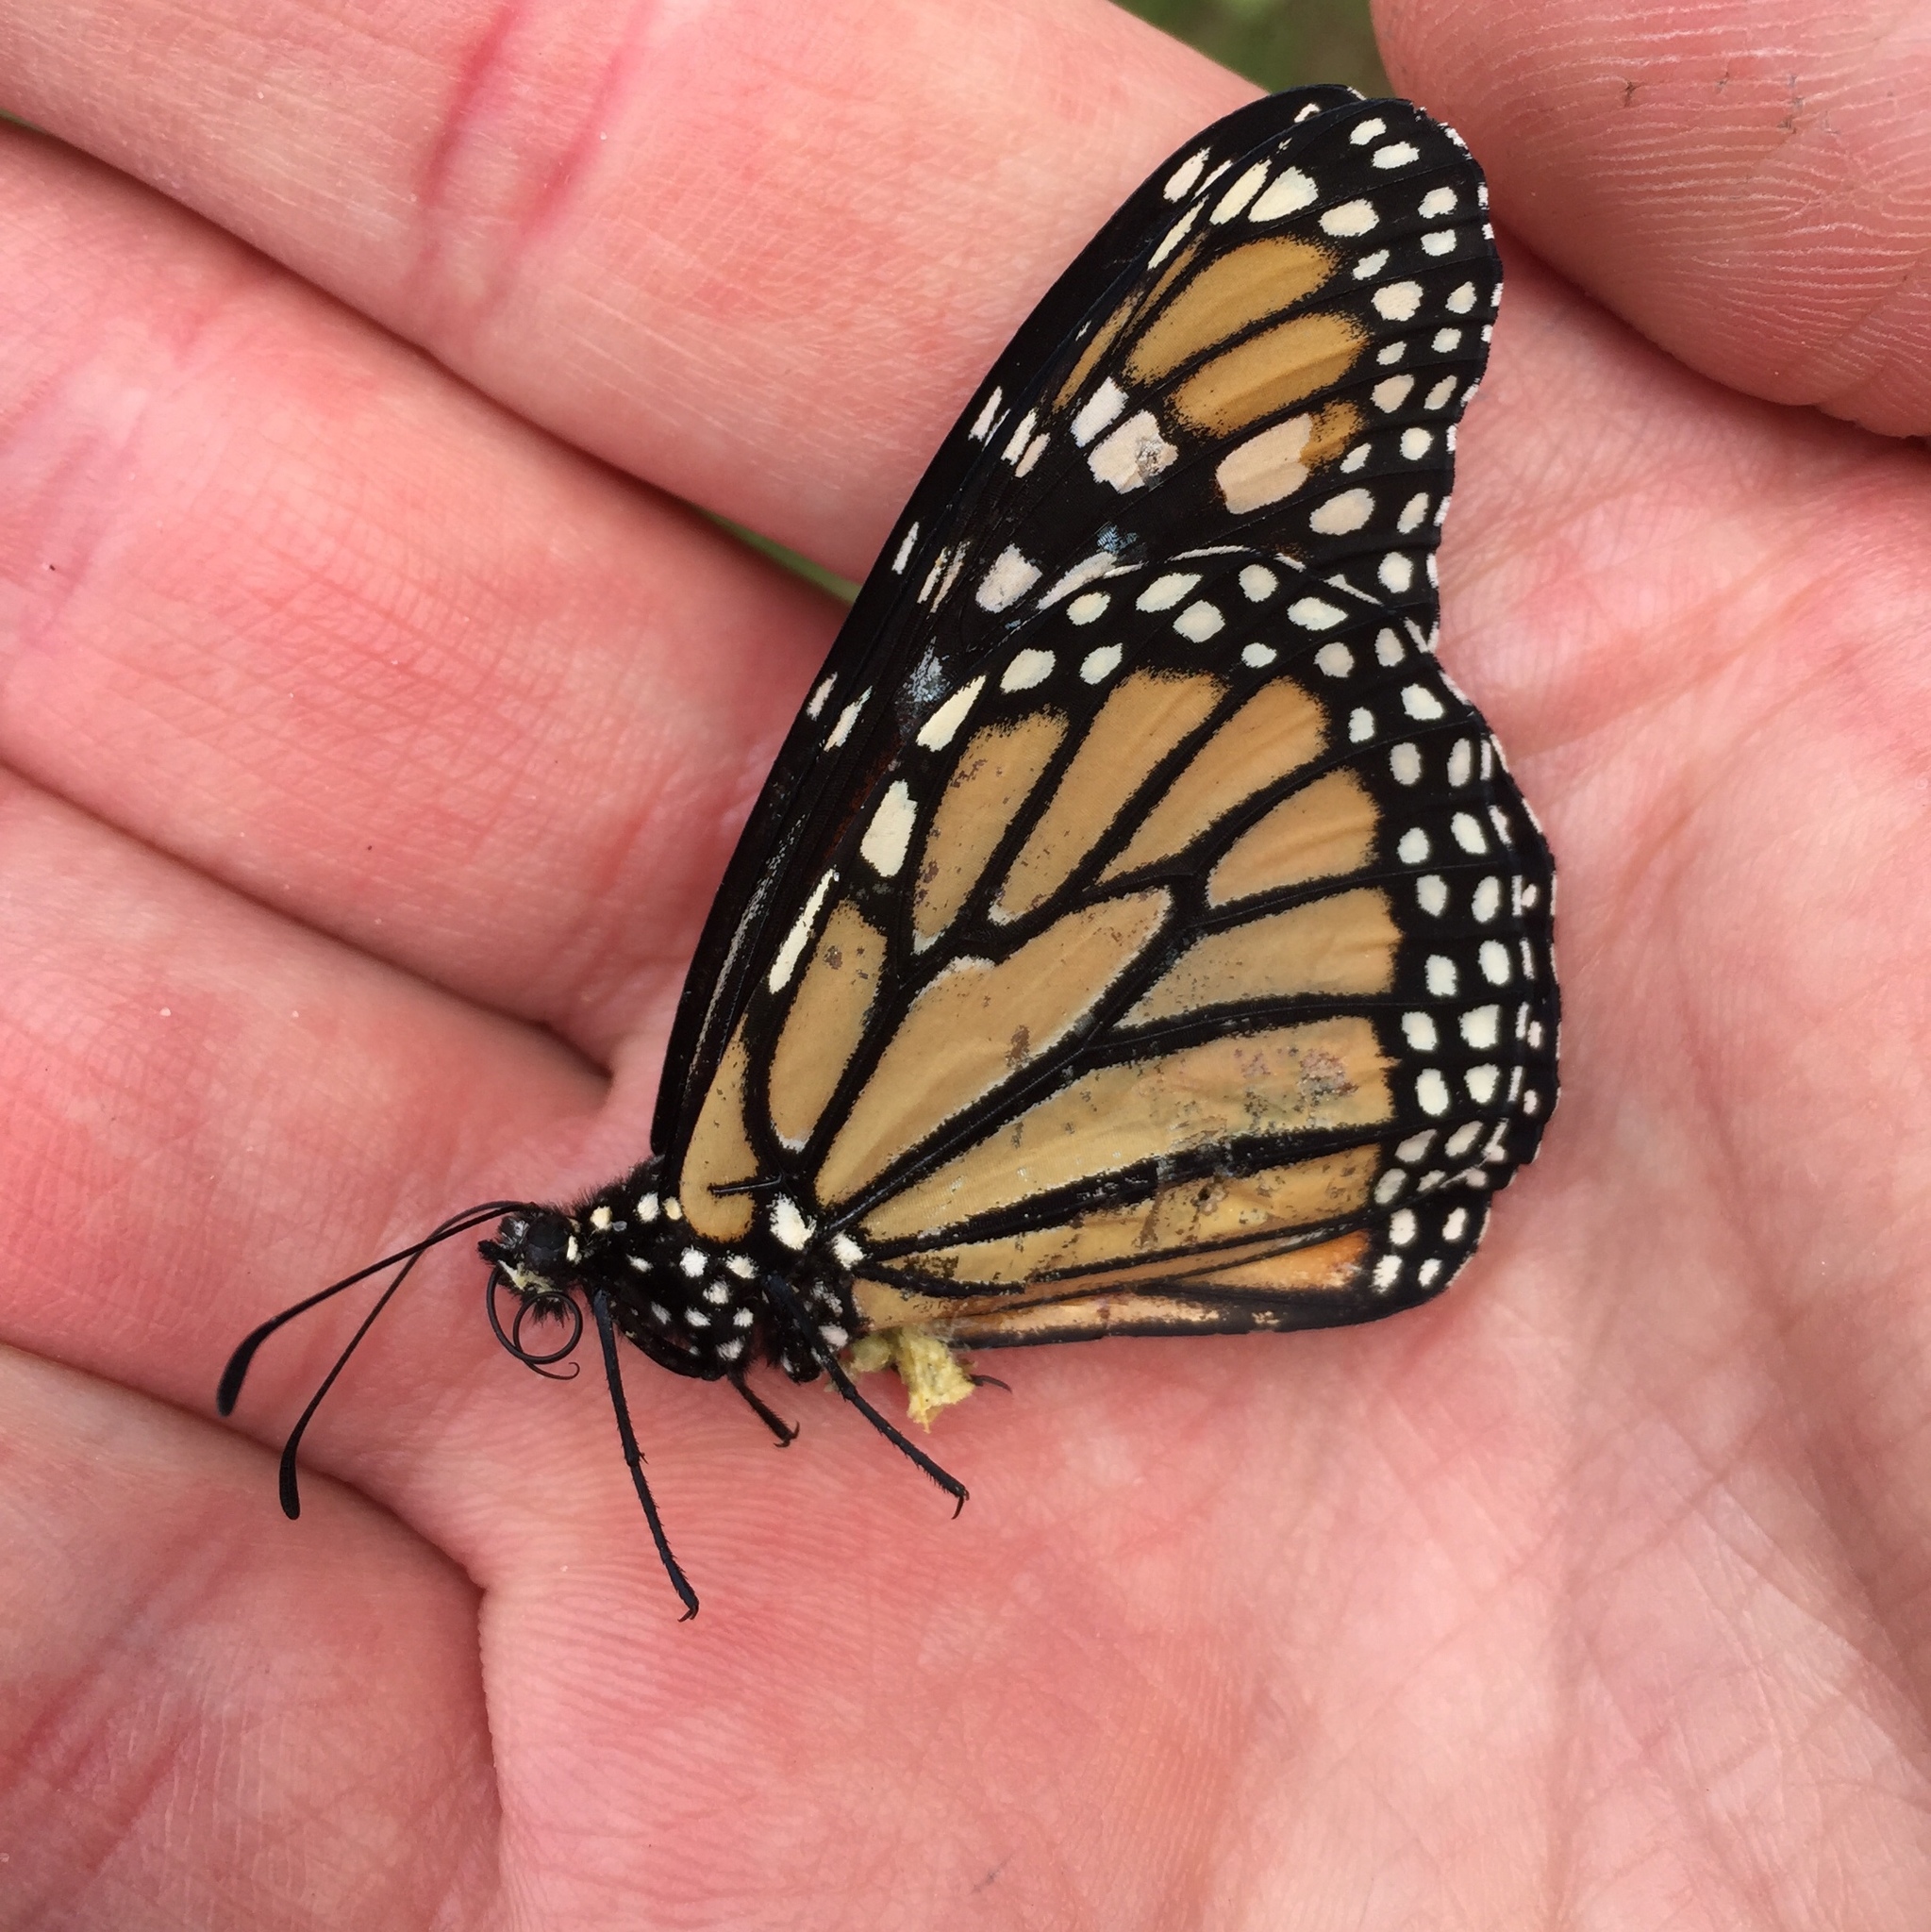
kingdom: Animalia
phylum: Arthropoda
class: Insecta
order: Lepidoptera
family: Nymphalidae
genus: Danaus
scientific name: Danaus plexippus
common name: Monarch
